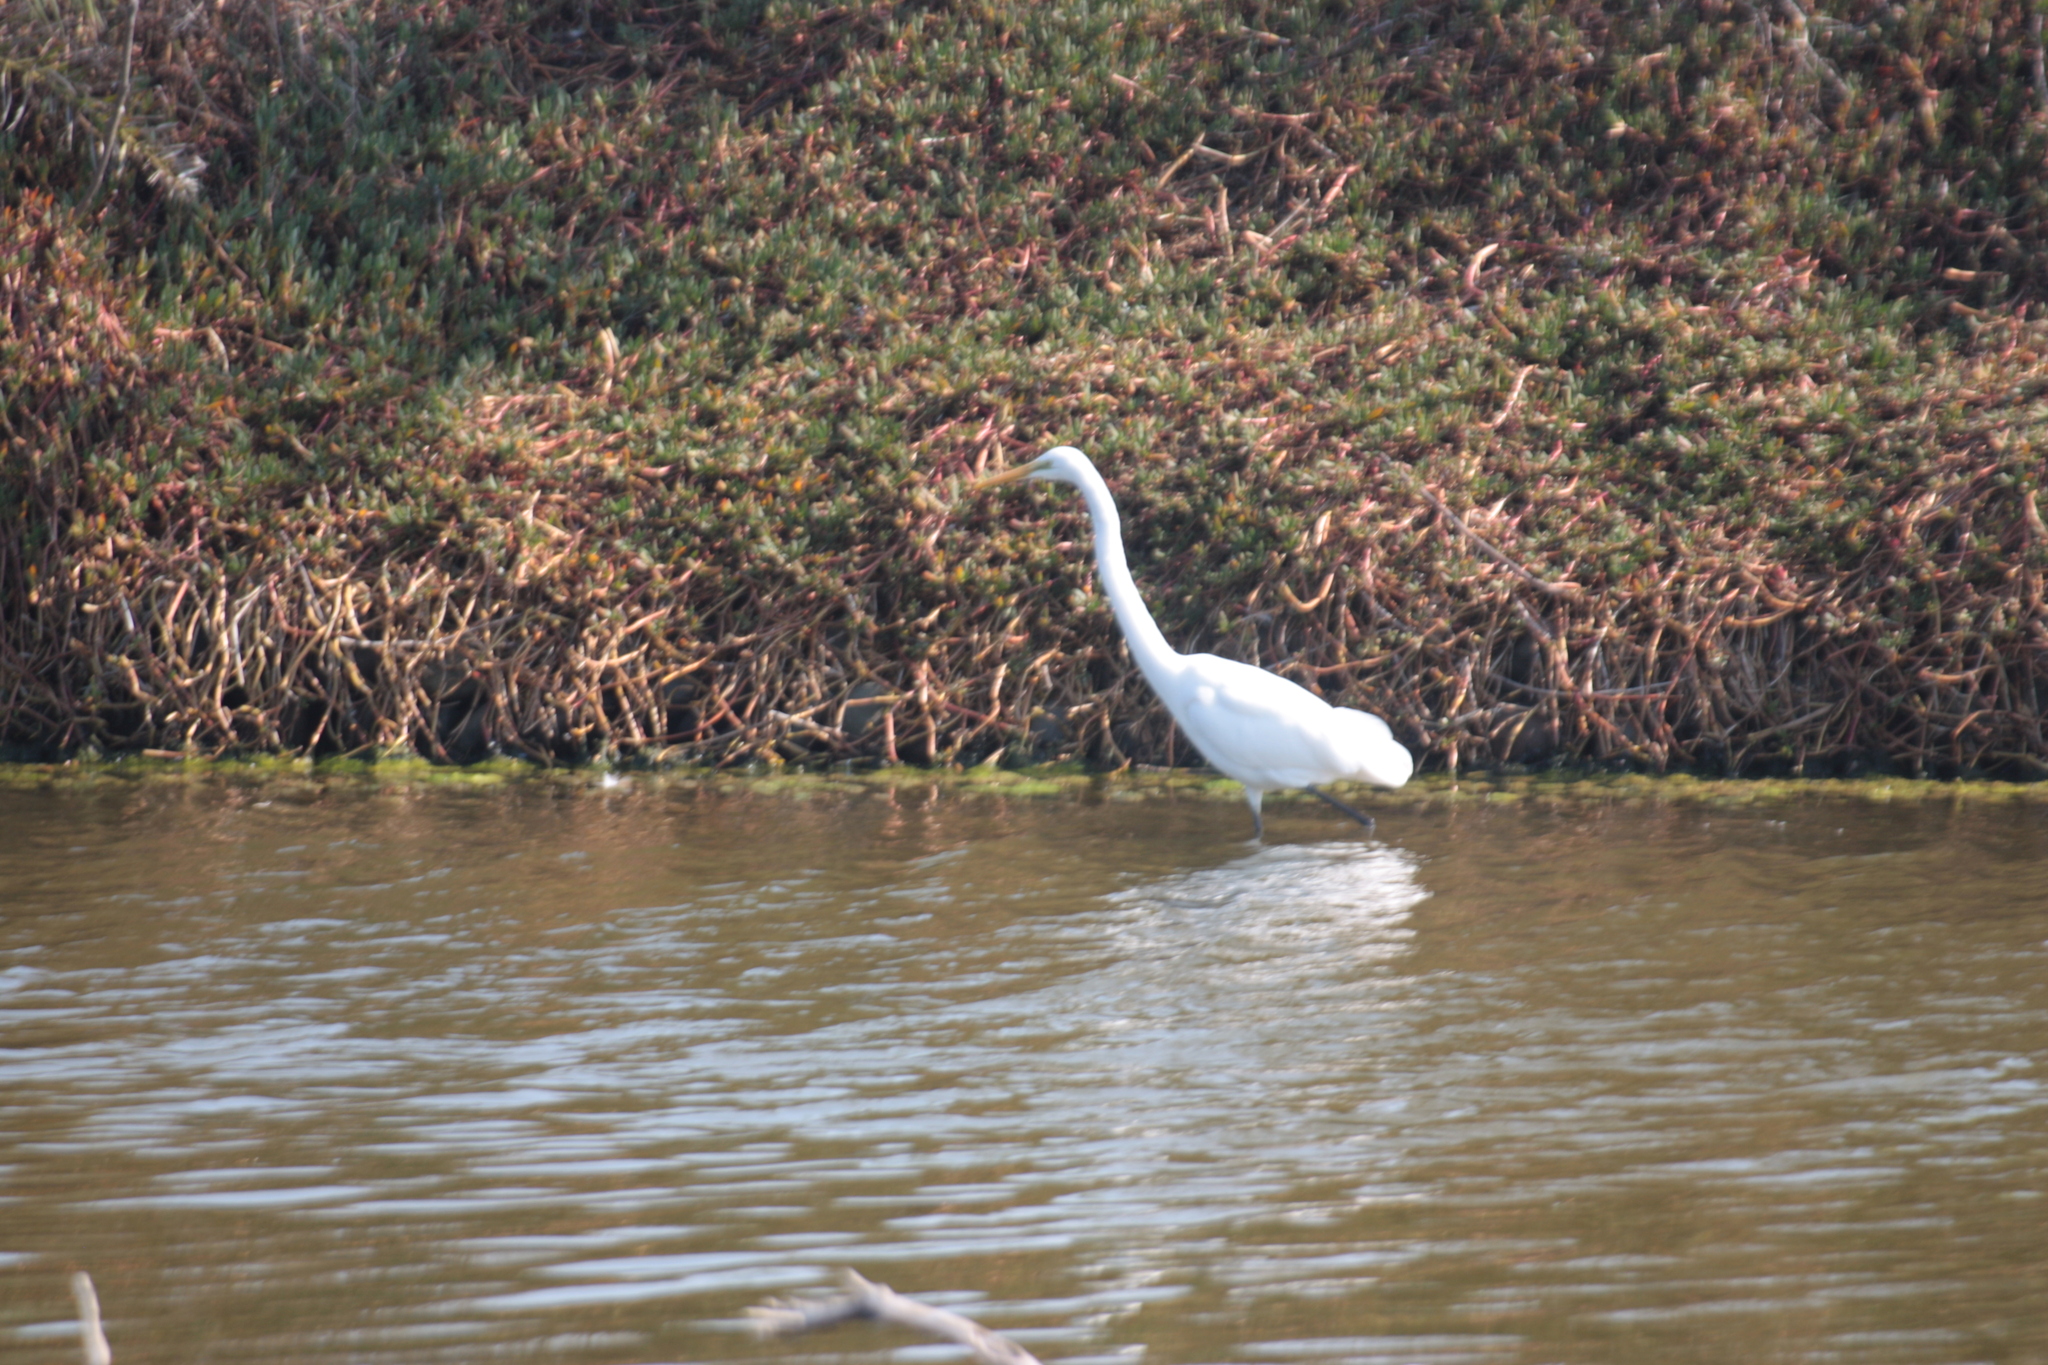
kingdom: Animalia
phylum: Chordata
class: Aves
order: Pelecaniformes
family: Ardeidae
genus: Ardea
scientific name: Ardea alba
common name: Great egret
